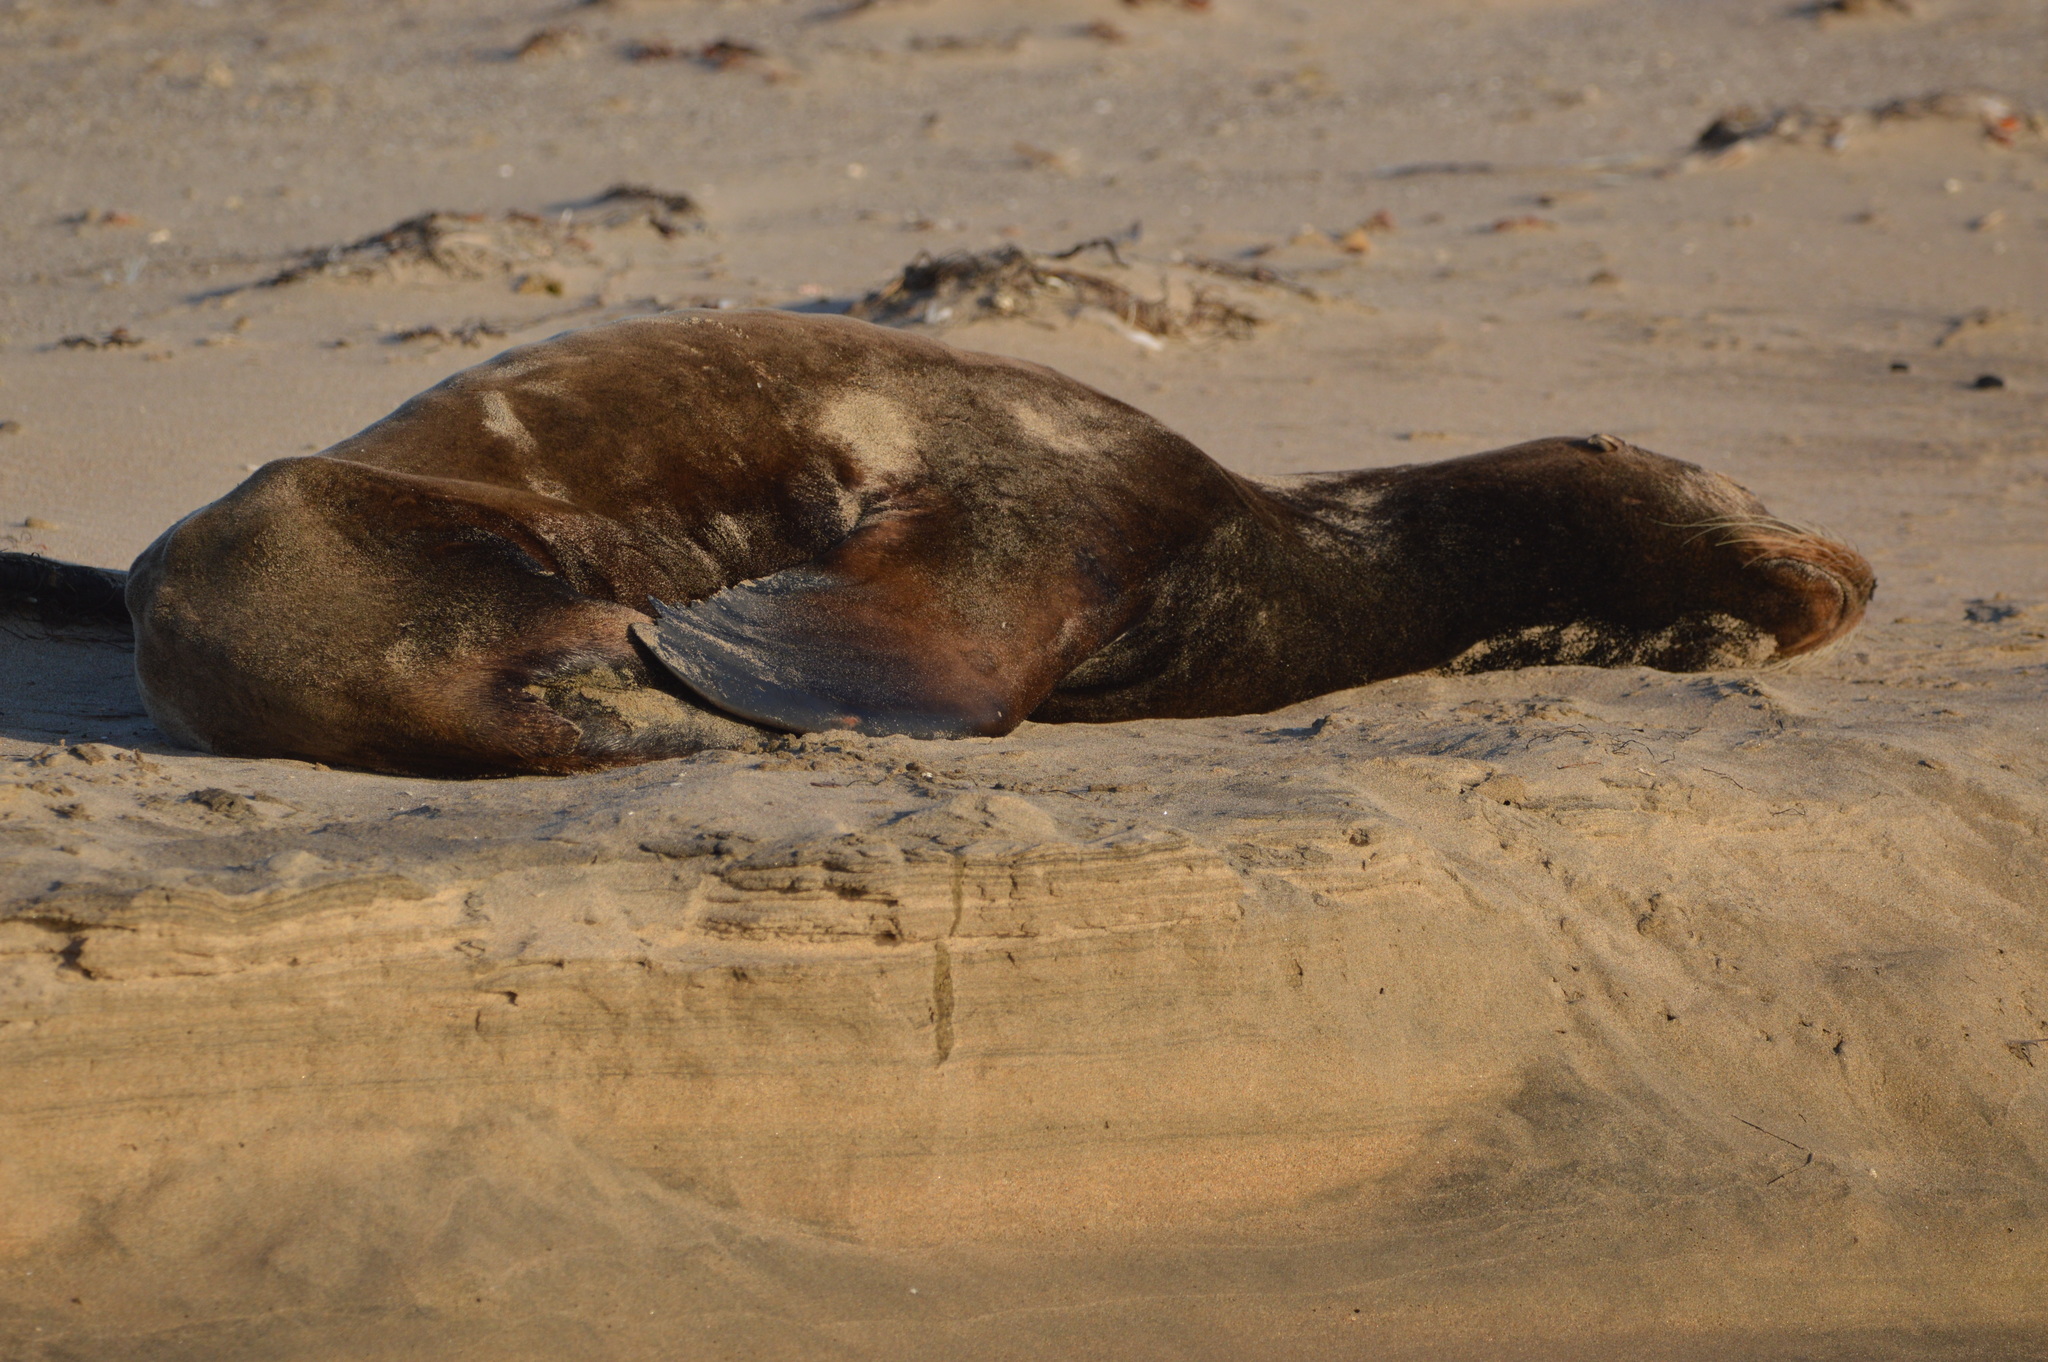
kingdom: Animalia
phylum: Chordata
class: Mammalia
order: Carnivora
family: Otariidae
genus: Zalophus
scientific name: Zalophus californianus
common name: California sea lion
